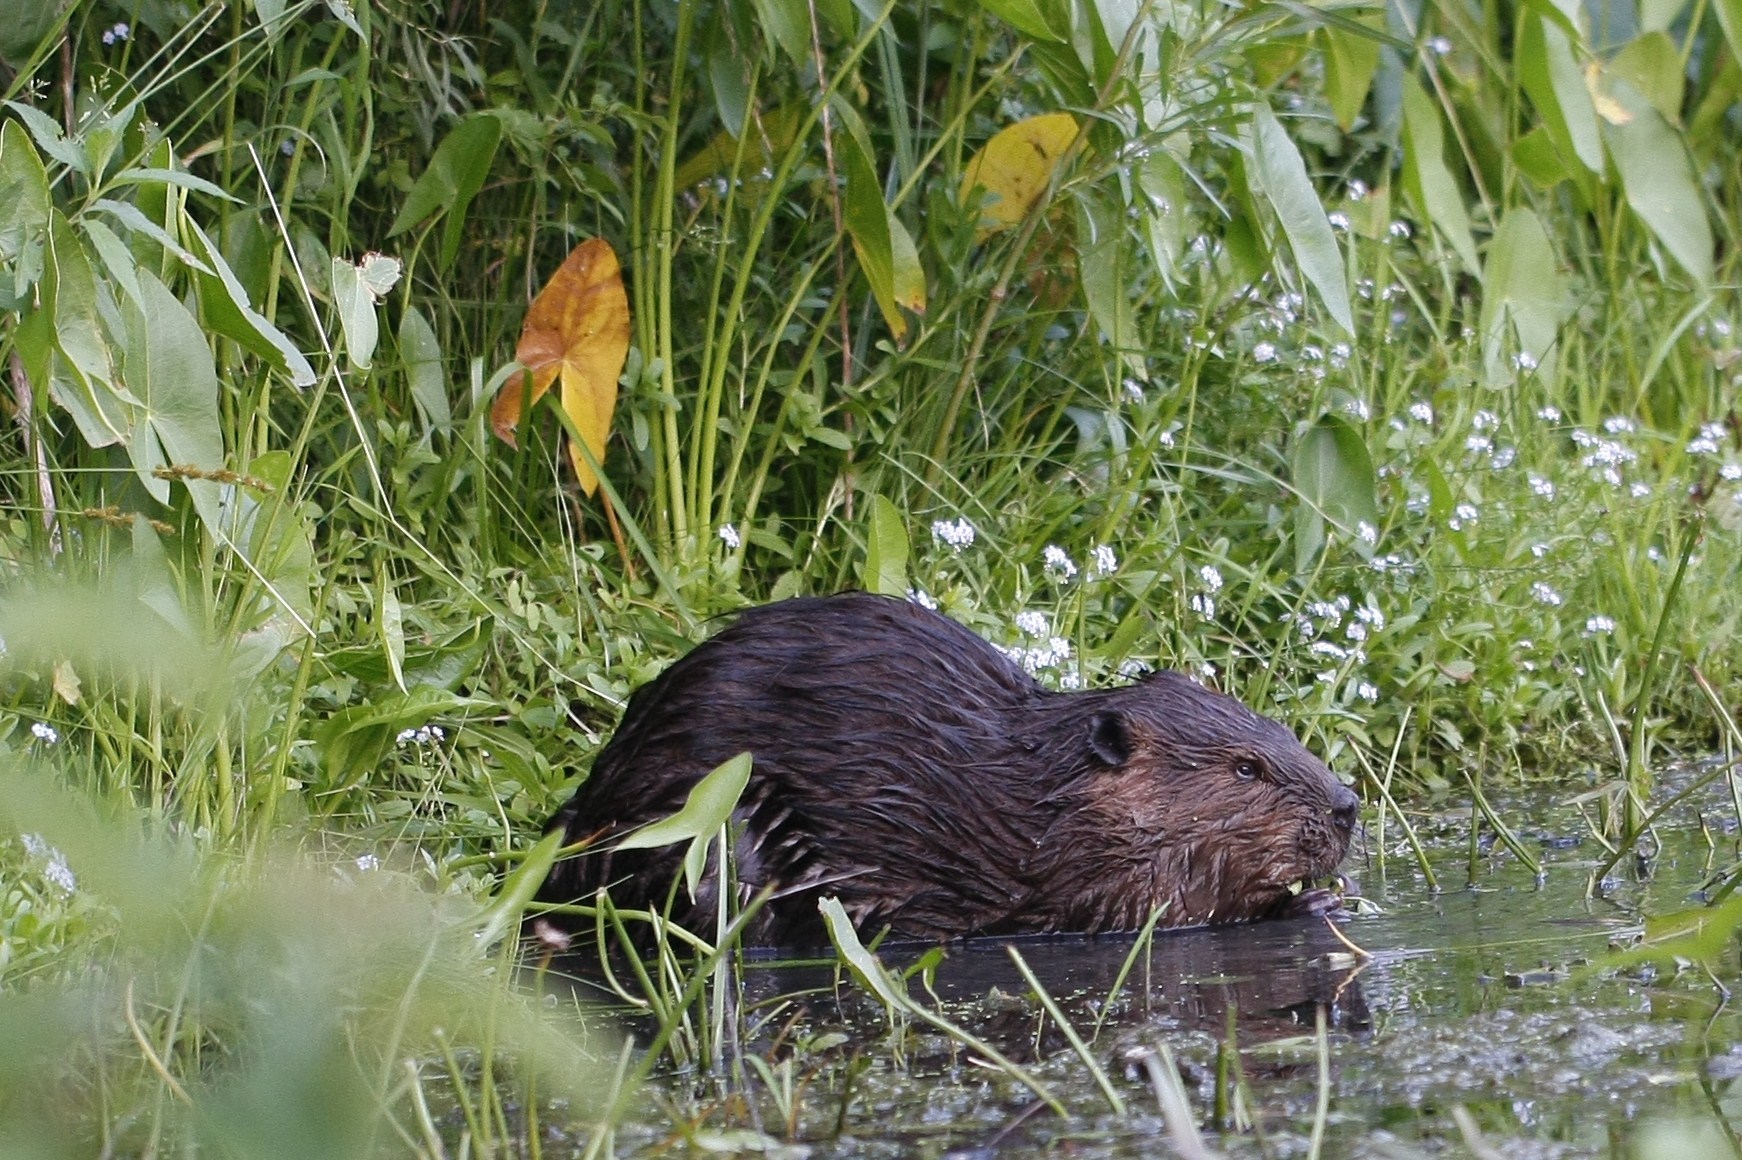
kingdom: Animalia
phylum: Chordata
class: Mammalia
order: Rodentia
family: Castoridae
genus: Castor
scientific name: Castor canadensis
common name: American beaver
